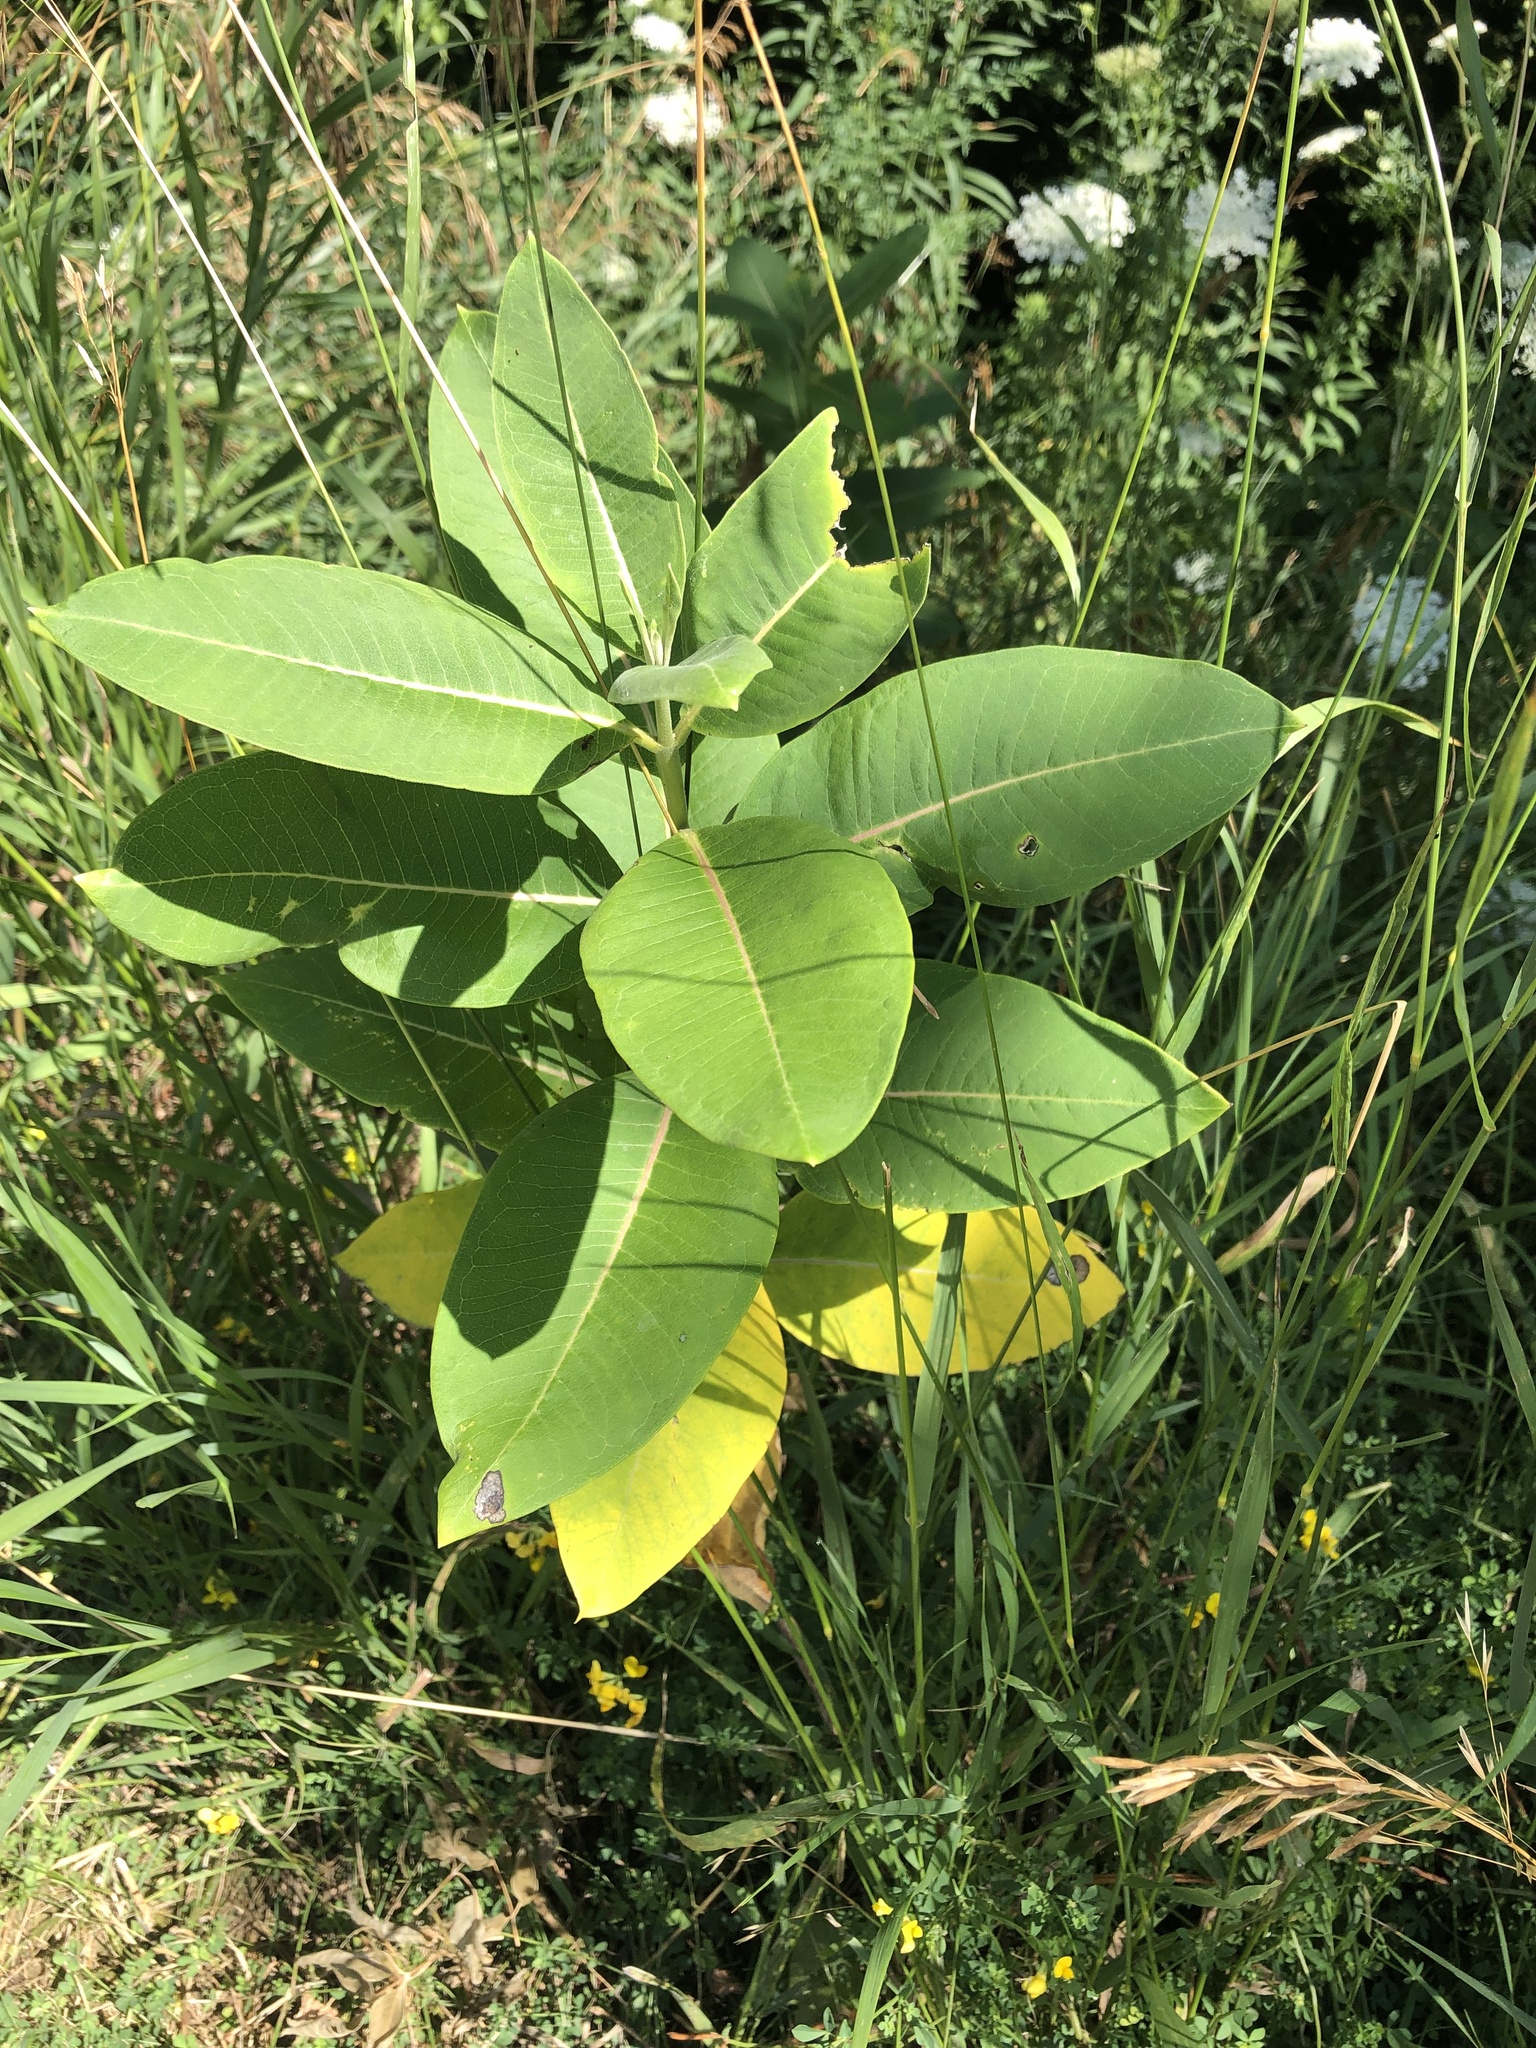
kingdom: Plantae
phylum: Tracheophyta
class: Magnoliopsida
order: Gentianales
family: Apocynaceae
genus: Asclepias
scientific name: Asclepias syriaca
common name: Common milkweed
